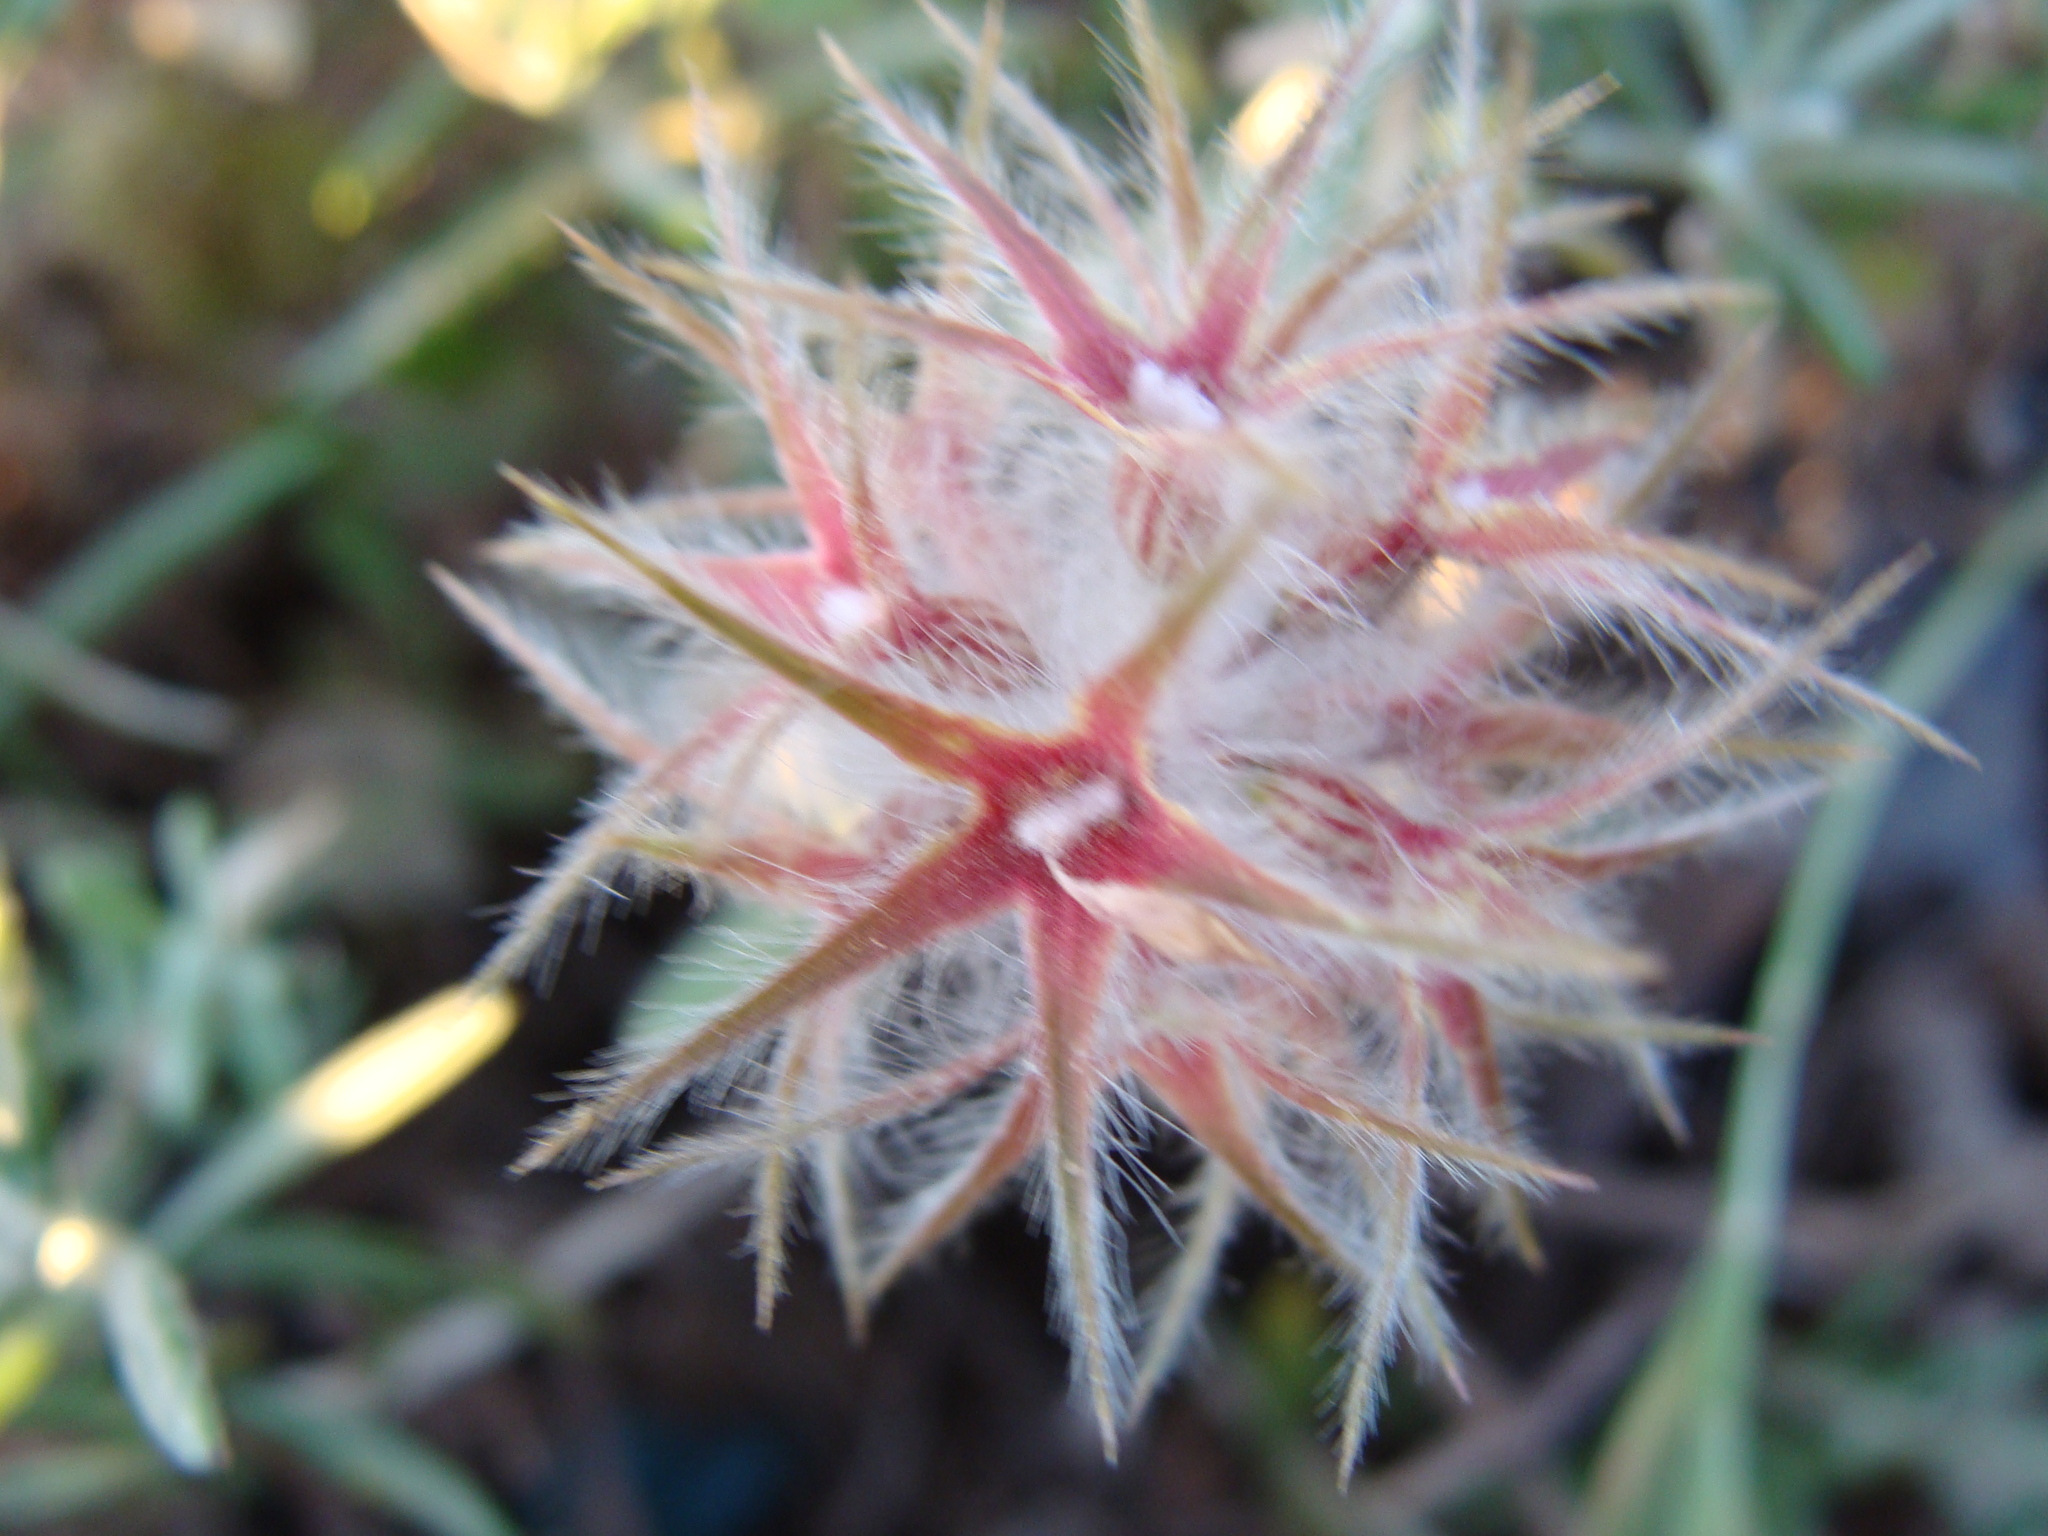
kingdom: Plantae
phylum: Tracheophyta
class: Magnoliopsida
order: Fabales
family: Fabaceae
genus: Trifolium
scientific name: Trifolium stellatum
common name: Starry clover
